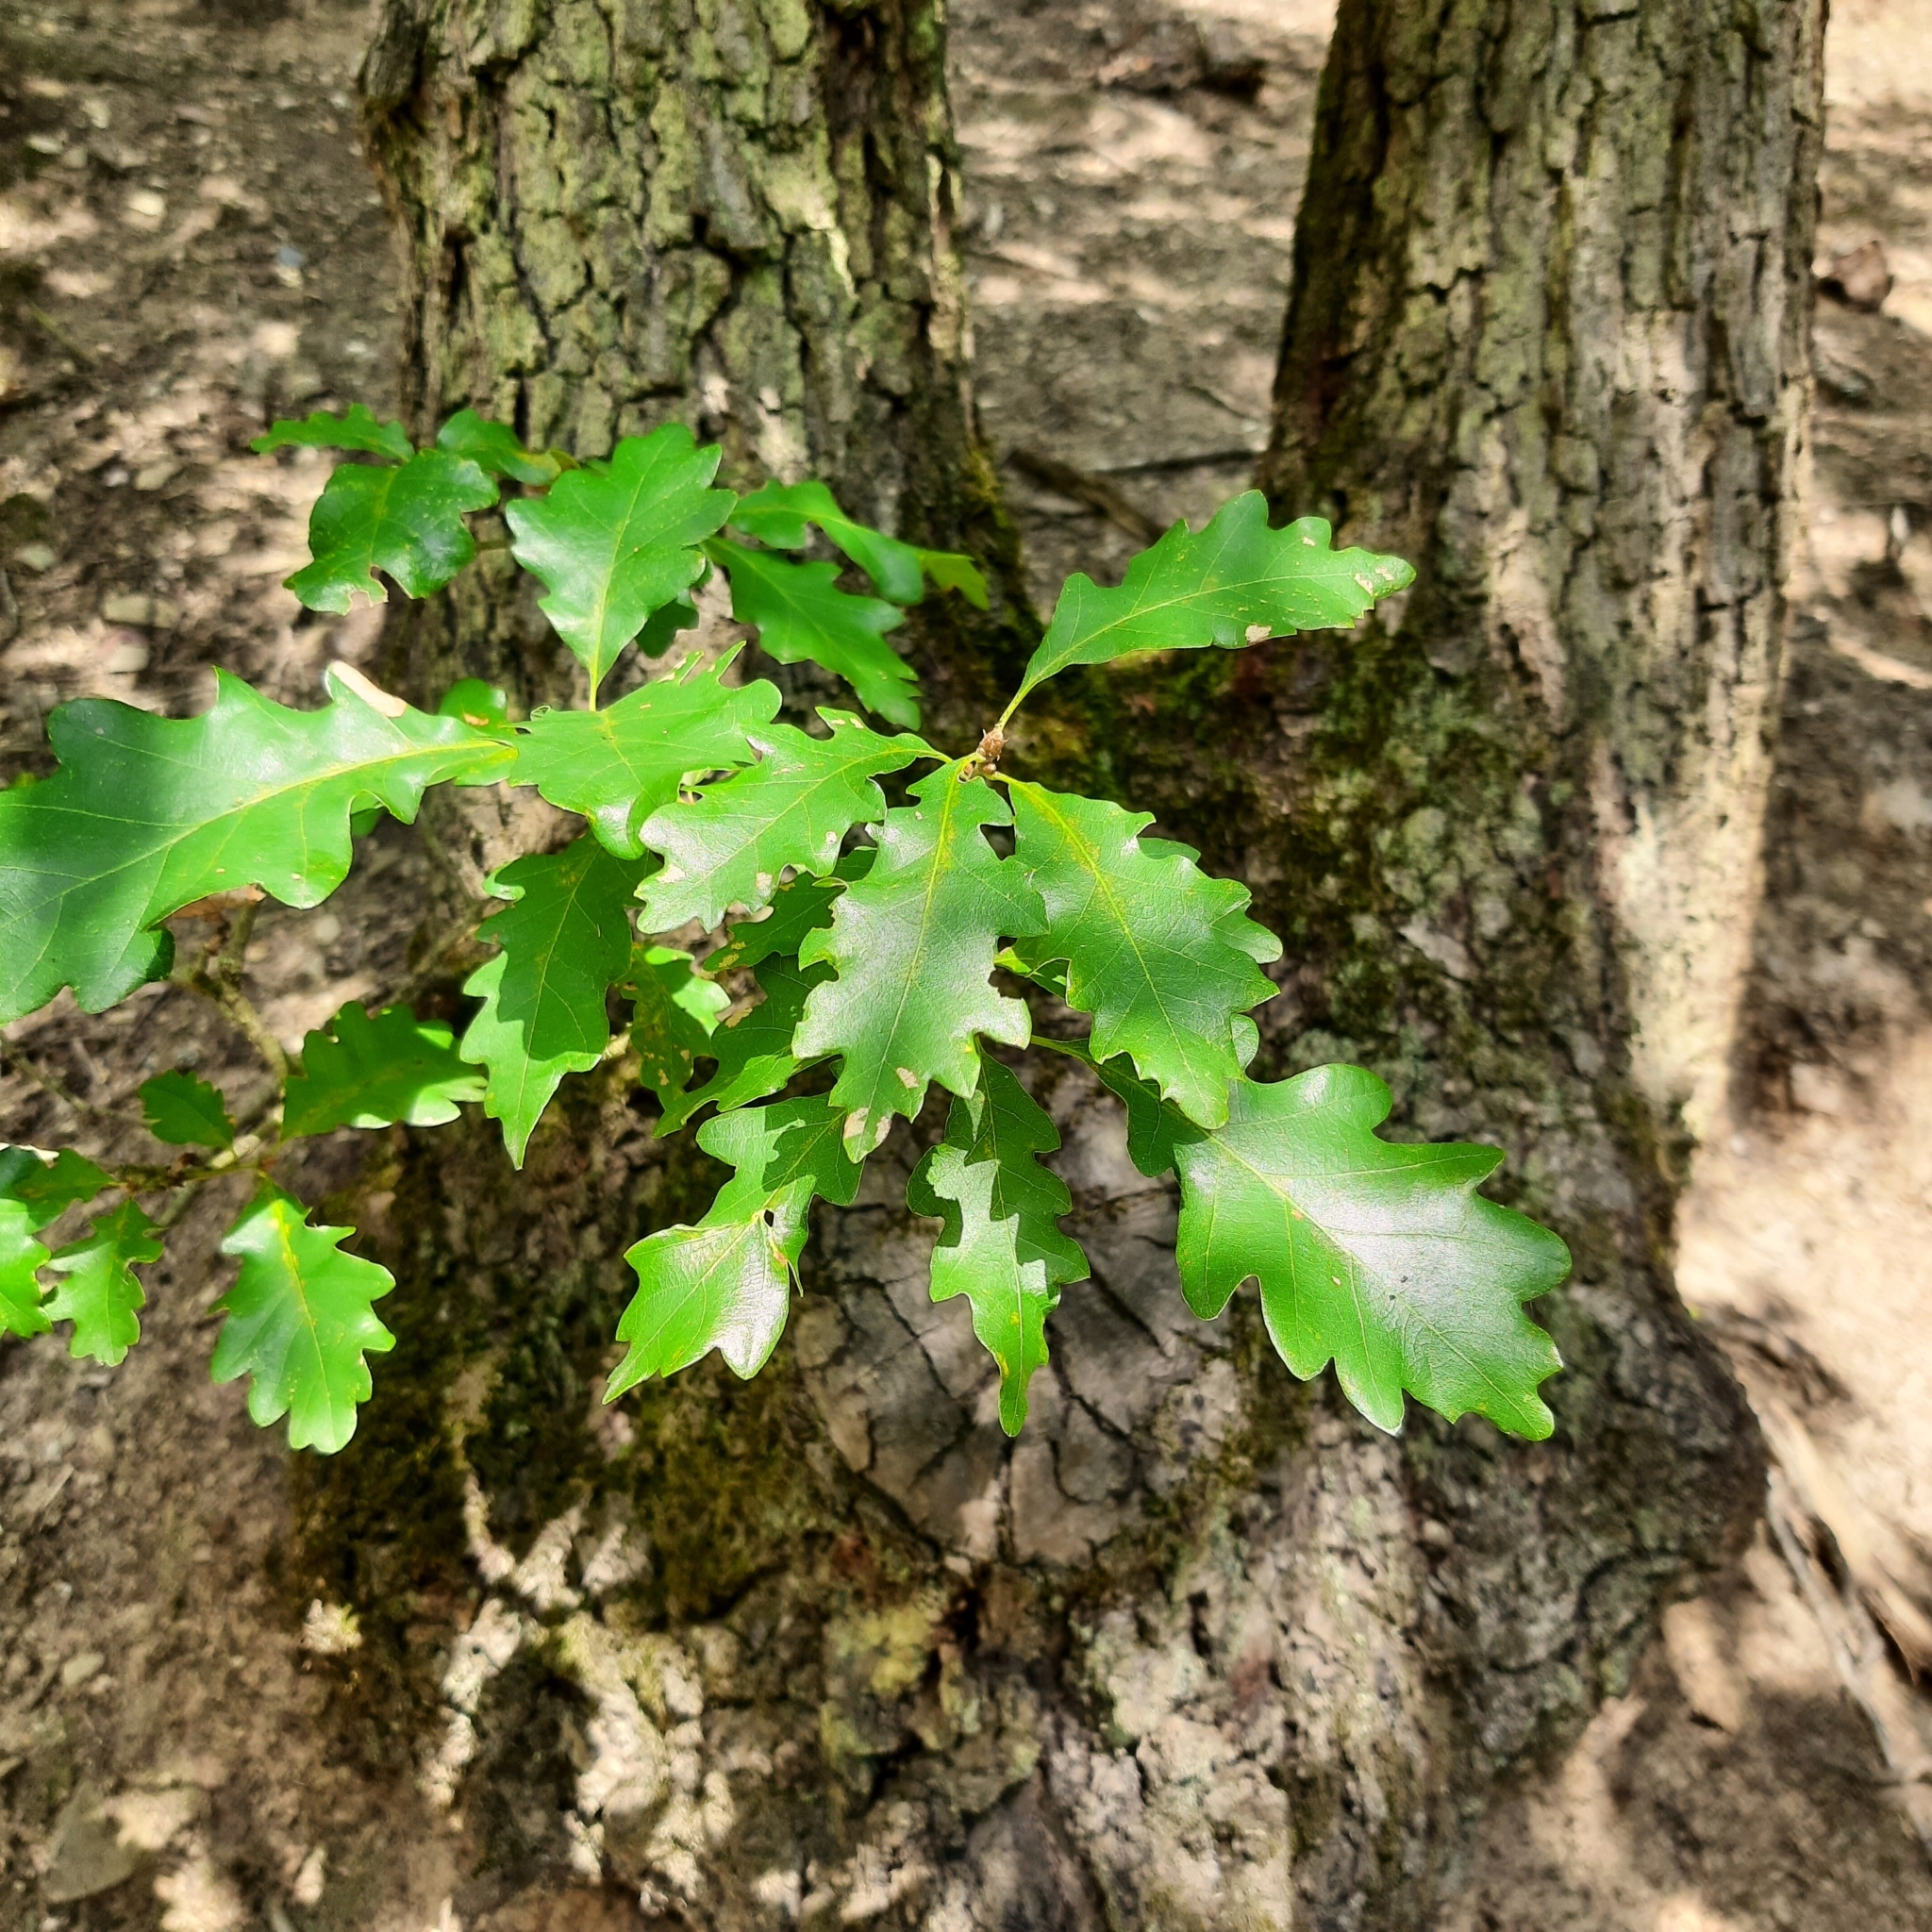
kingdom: Plantae
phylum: Tracheophyta
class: Magnoliopsida
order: Fagales
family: Fagaceae
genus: Quercus
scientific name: Quercus petraea
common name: Sessile oak
